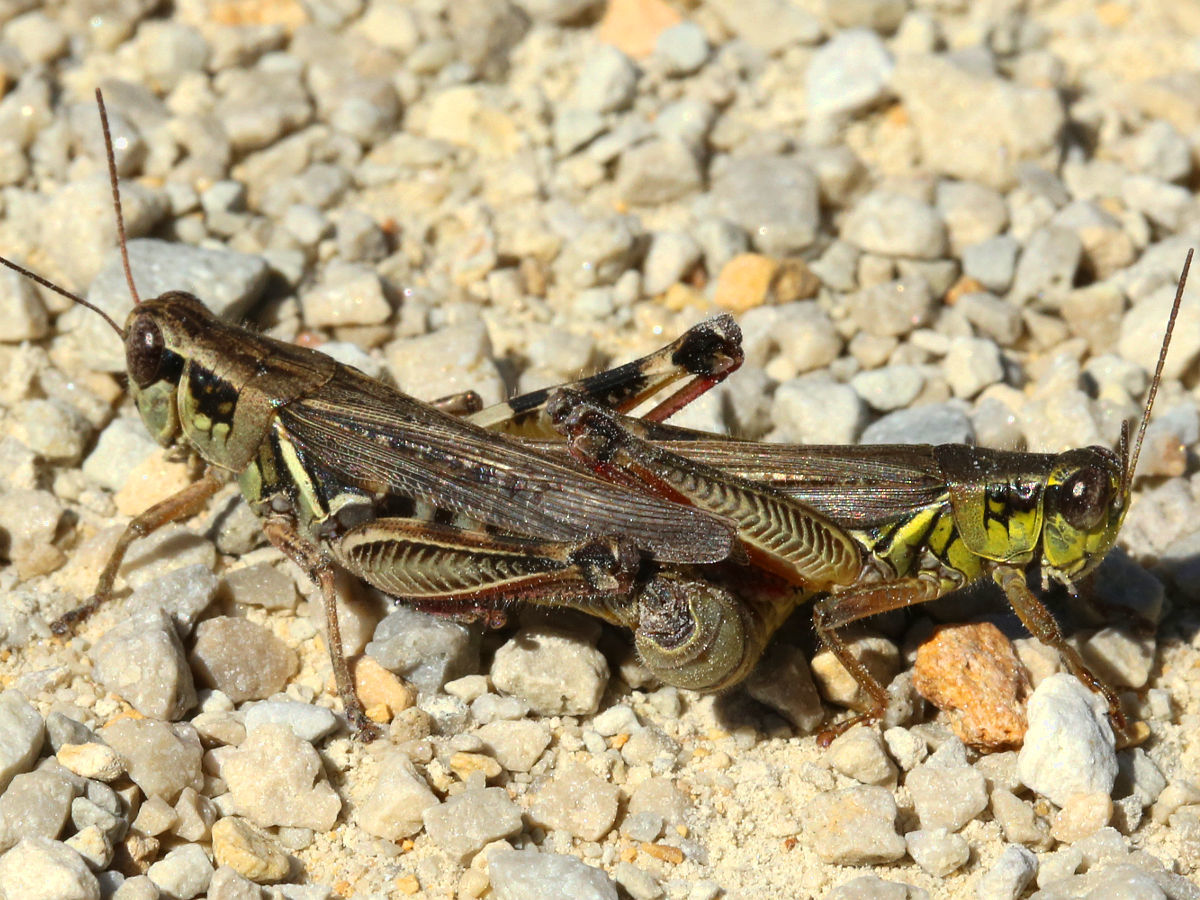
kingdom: Animalia
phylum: Arthropoda
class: Insecta
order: Orthoptera
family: Acrididae
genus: Melanoplus
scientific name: Melanoplus femurrubrum
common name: Red-legged grasshopper
